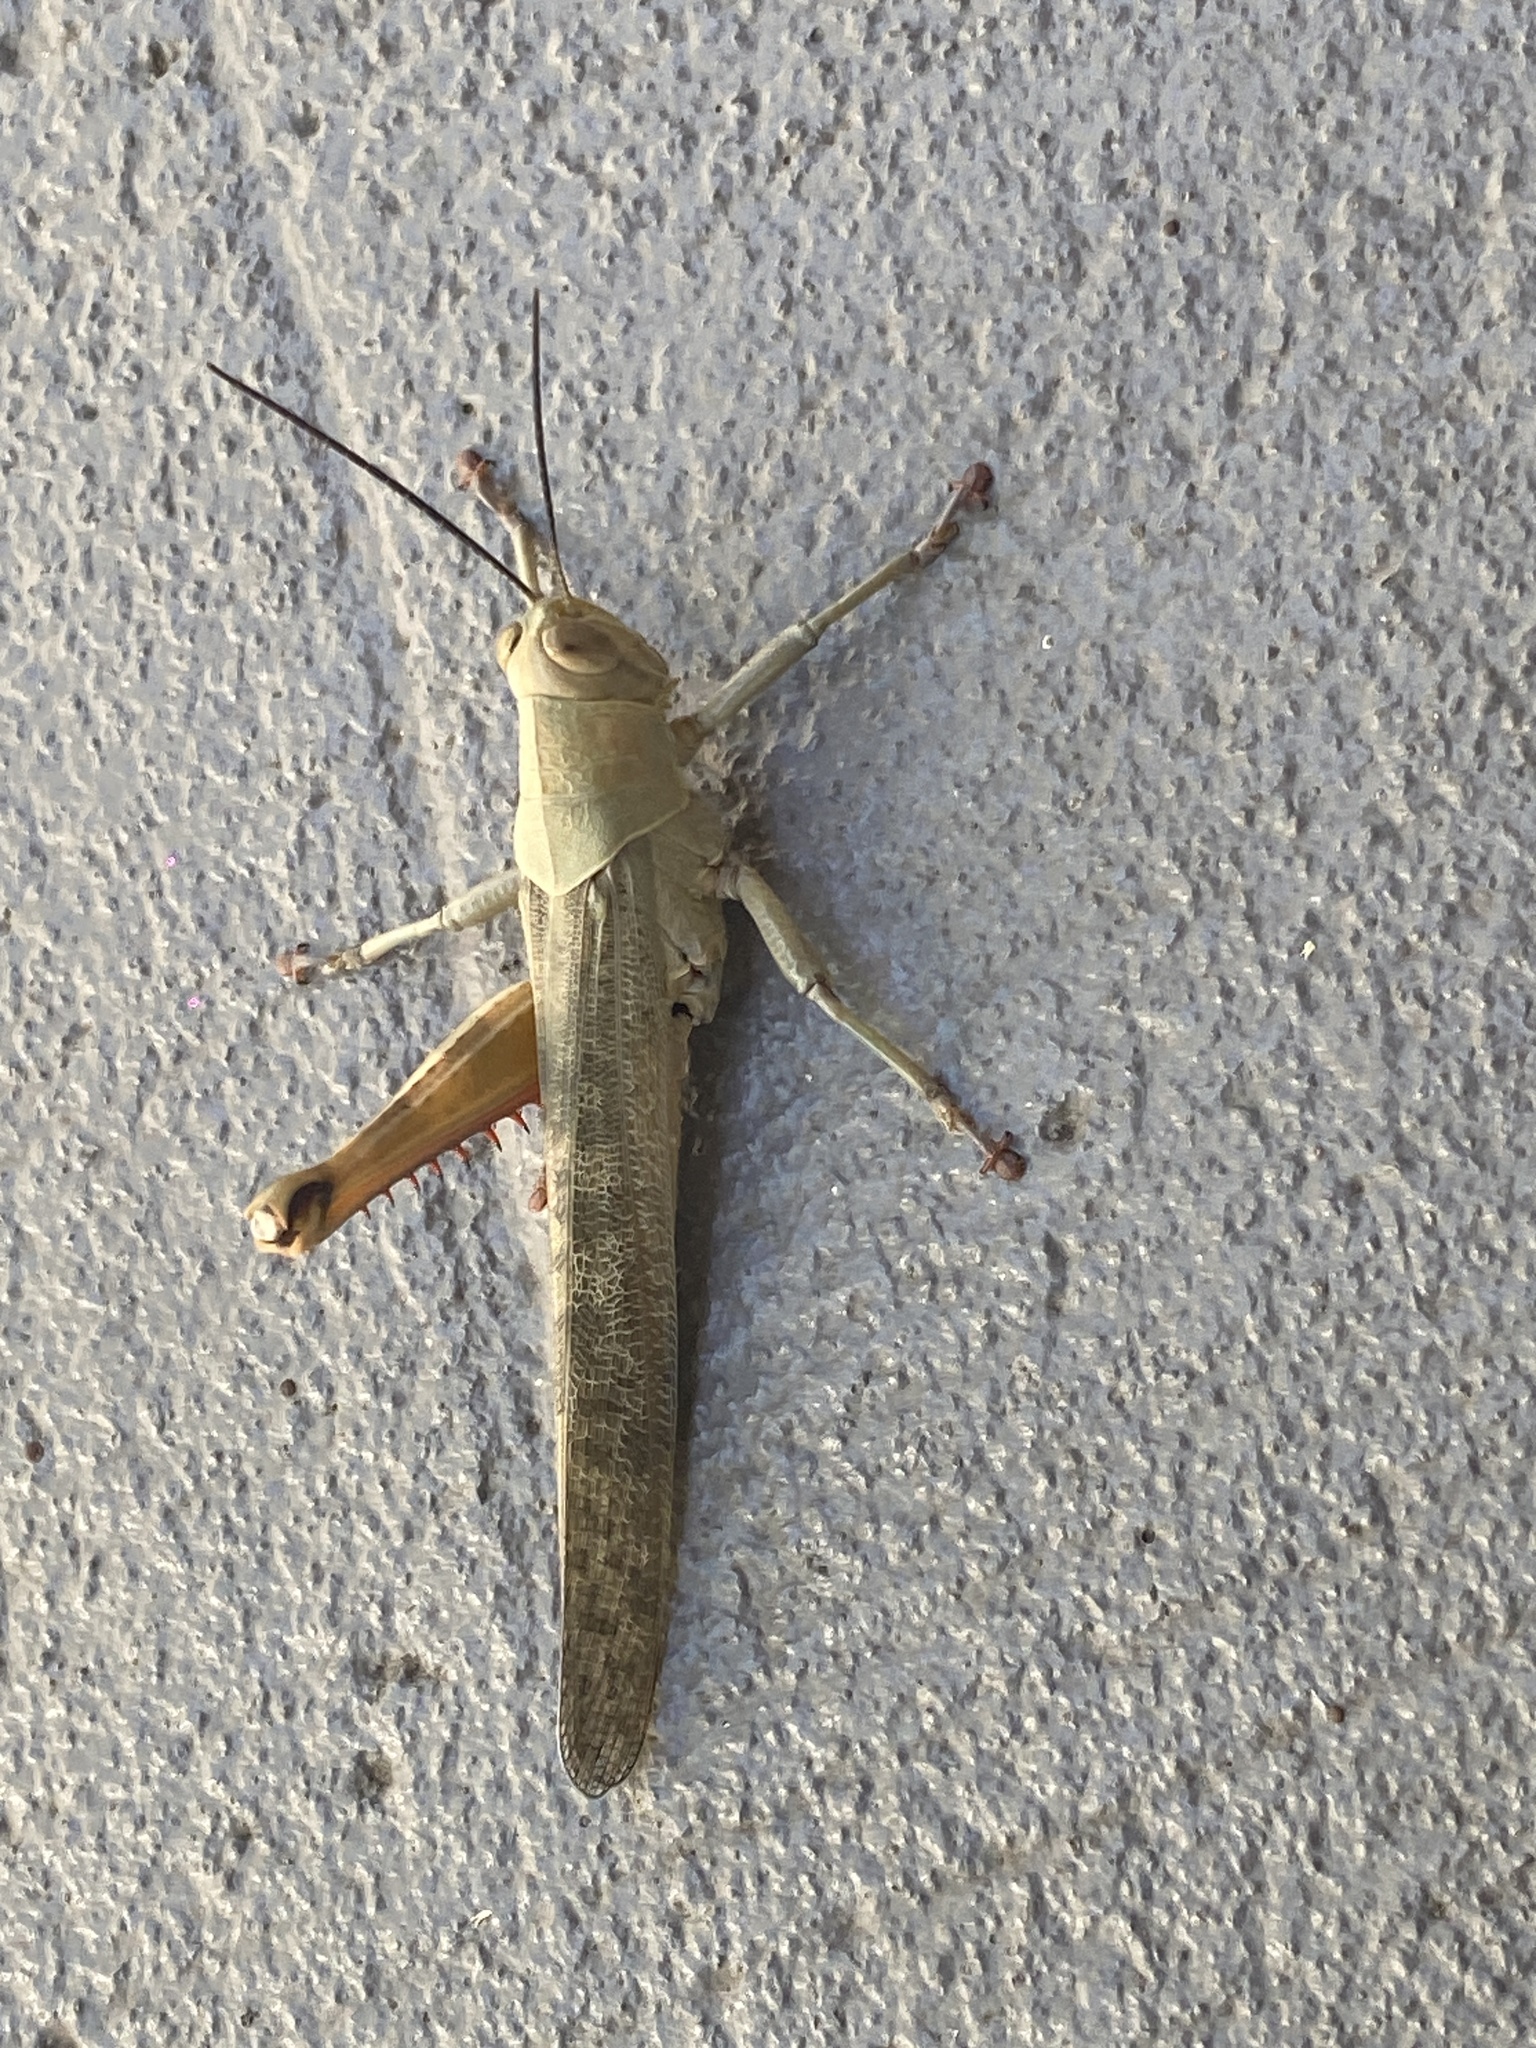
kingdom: Animalia
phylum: Arthropoda
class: Insecta
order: Orthoptera
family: Acrididae
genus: Valanga
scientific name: Valanga irregularis
